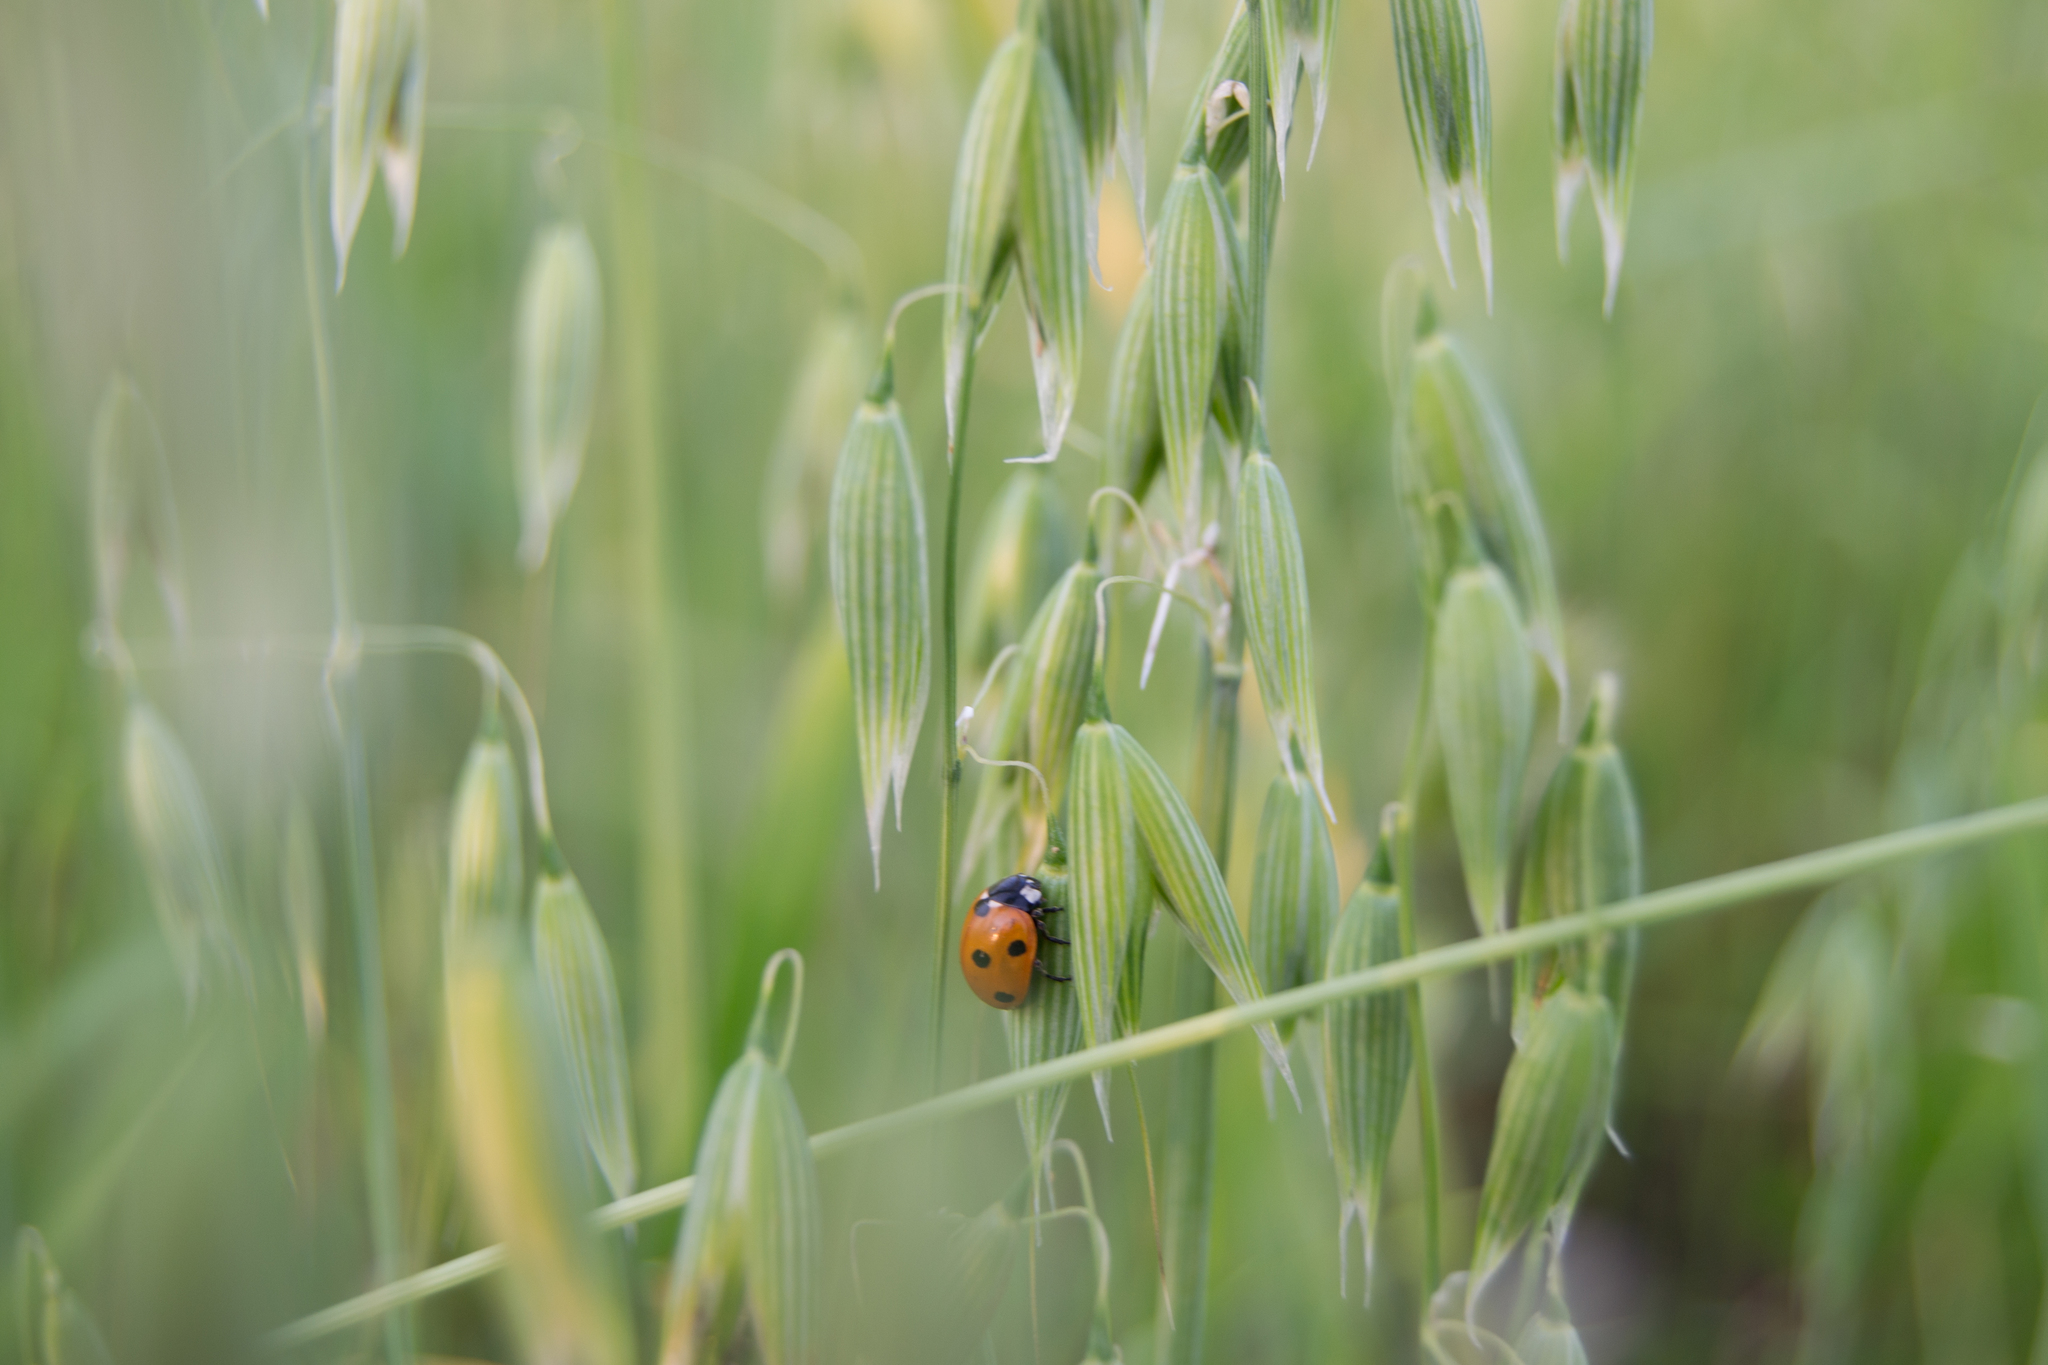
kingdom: Animalia
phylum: Arthropoda
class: Insecta
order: Coleoptera
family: Coccinellidae
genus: Coccinella
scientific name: Coccinella septempunctata
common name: Sevenspotted lady beetle
